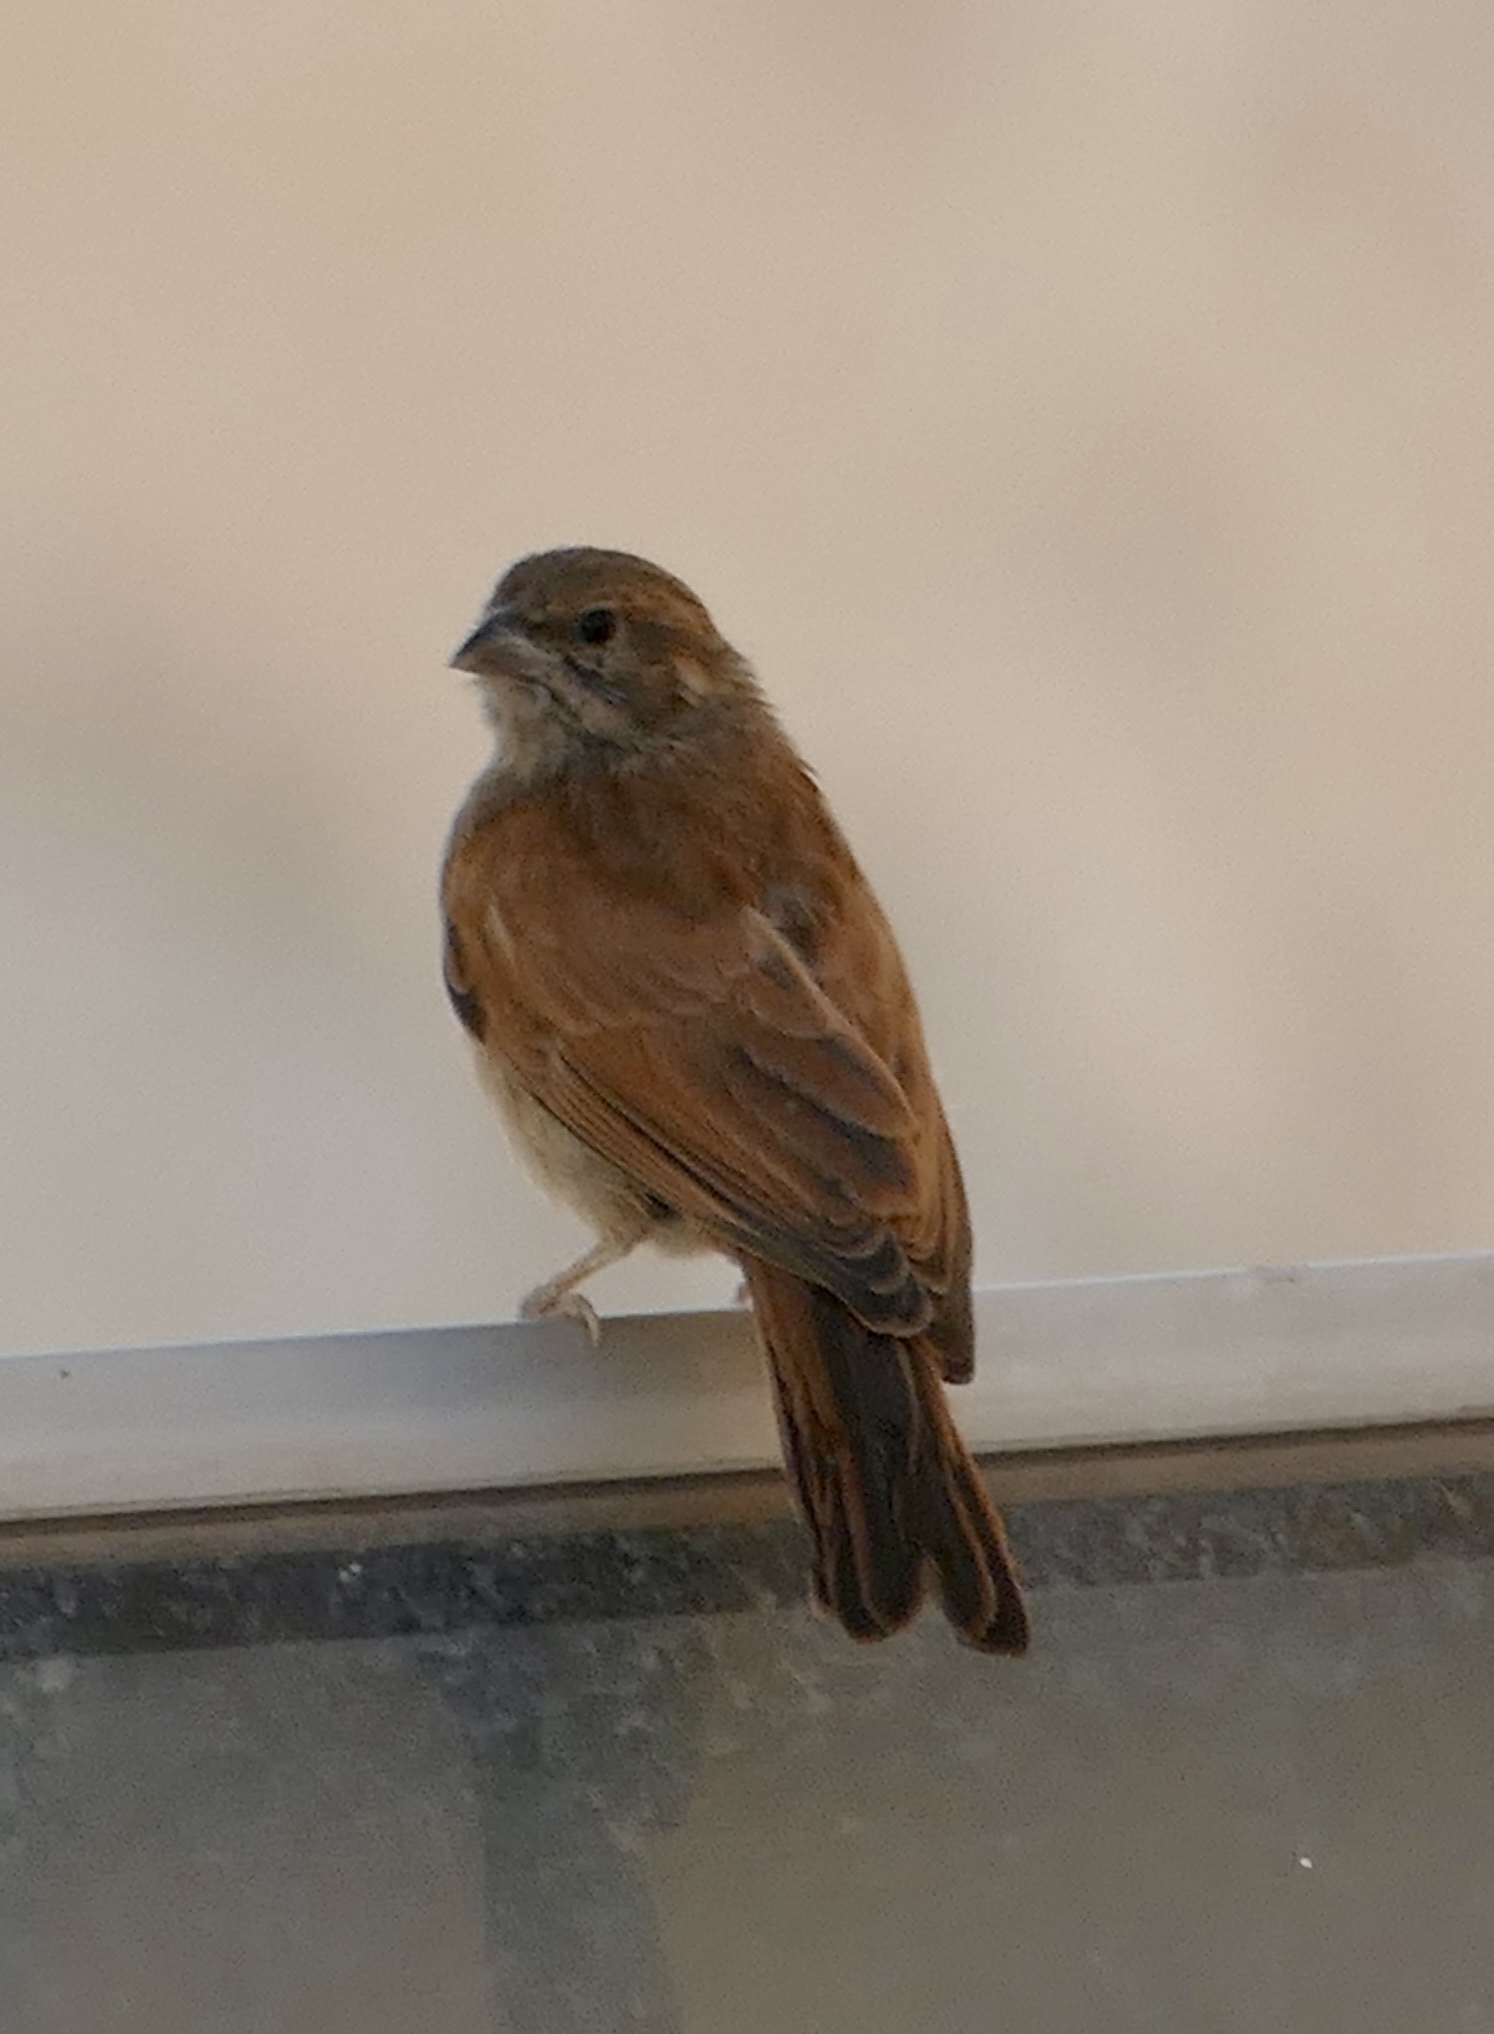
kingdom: Animalia
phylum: Chordata
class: Aves
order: Passeriformes
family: Emberizidae
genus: Emberiza
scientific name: Emberiza sahari
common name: House bunting
